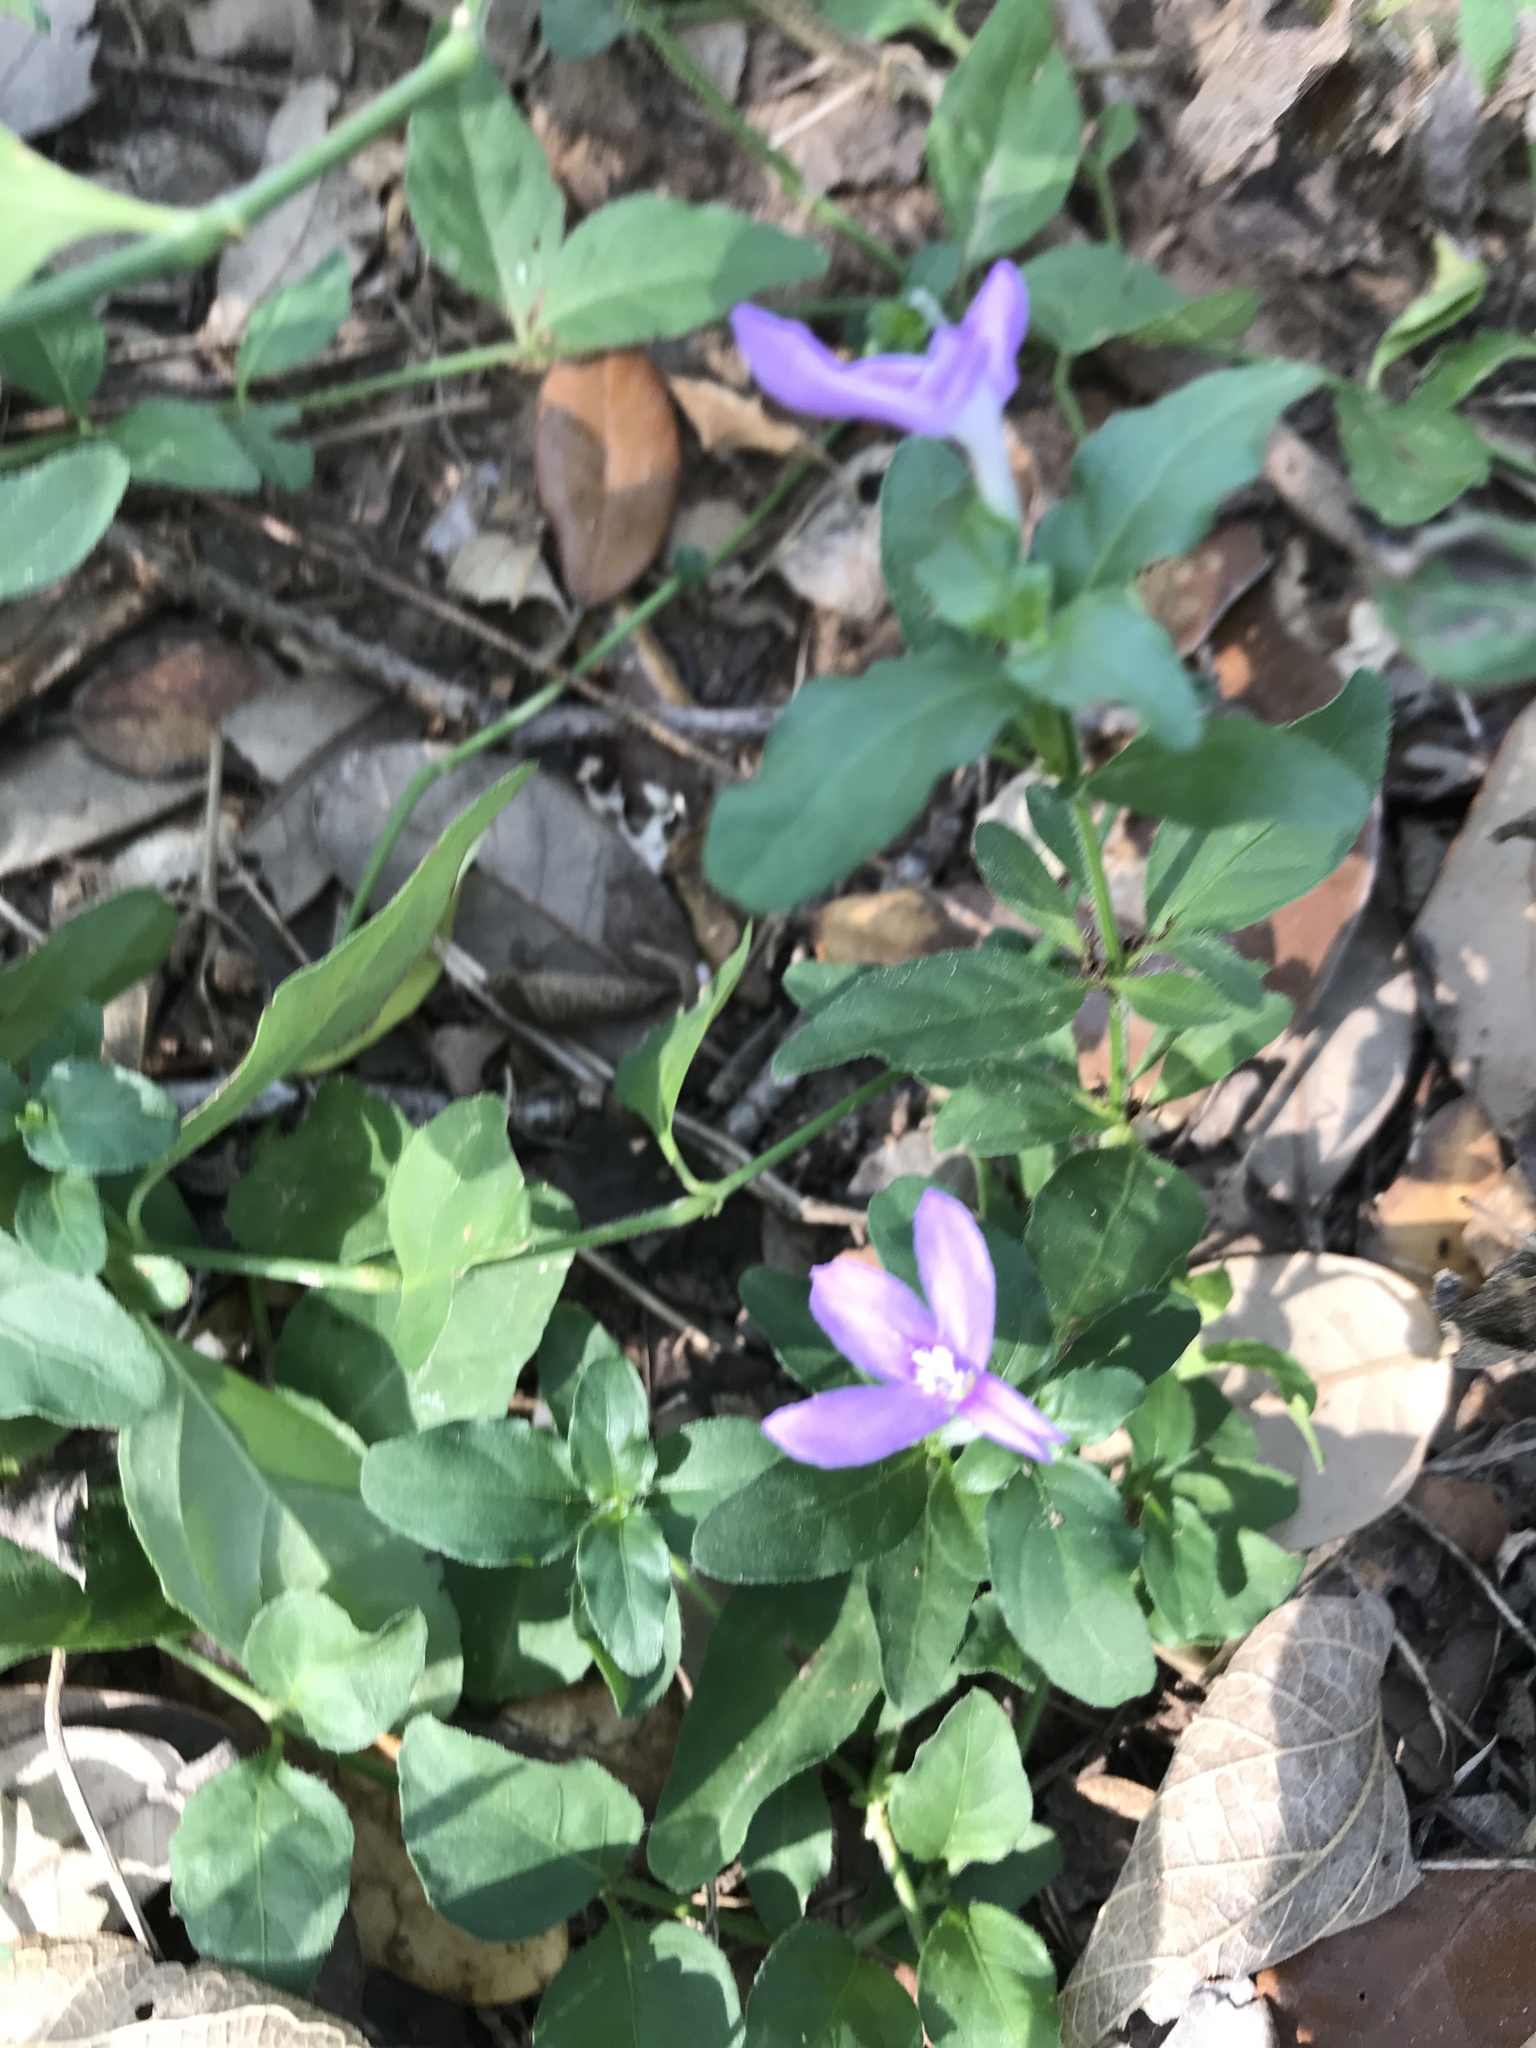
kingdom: Plantae
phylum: Tracheophyta
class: Magnoliopsida
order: Lamiales
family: Acanthaceae
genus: Justicia
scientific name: Justicia pilosella
